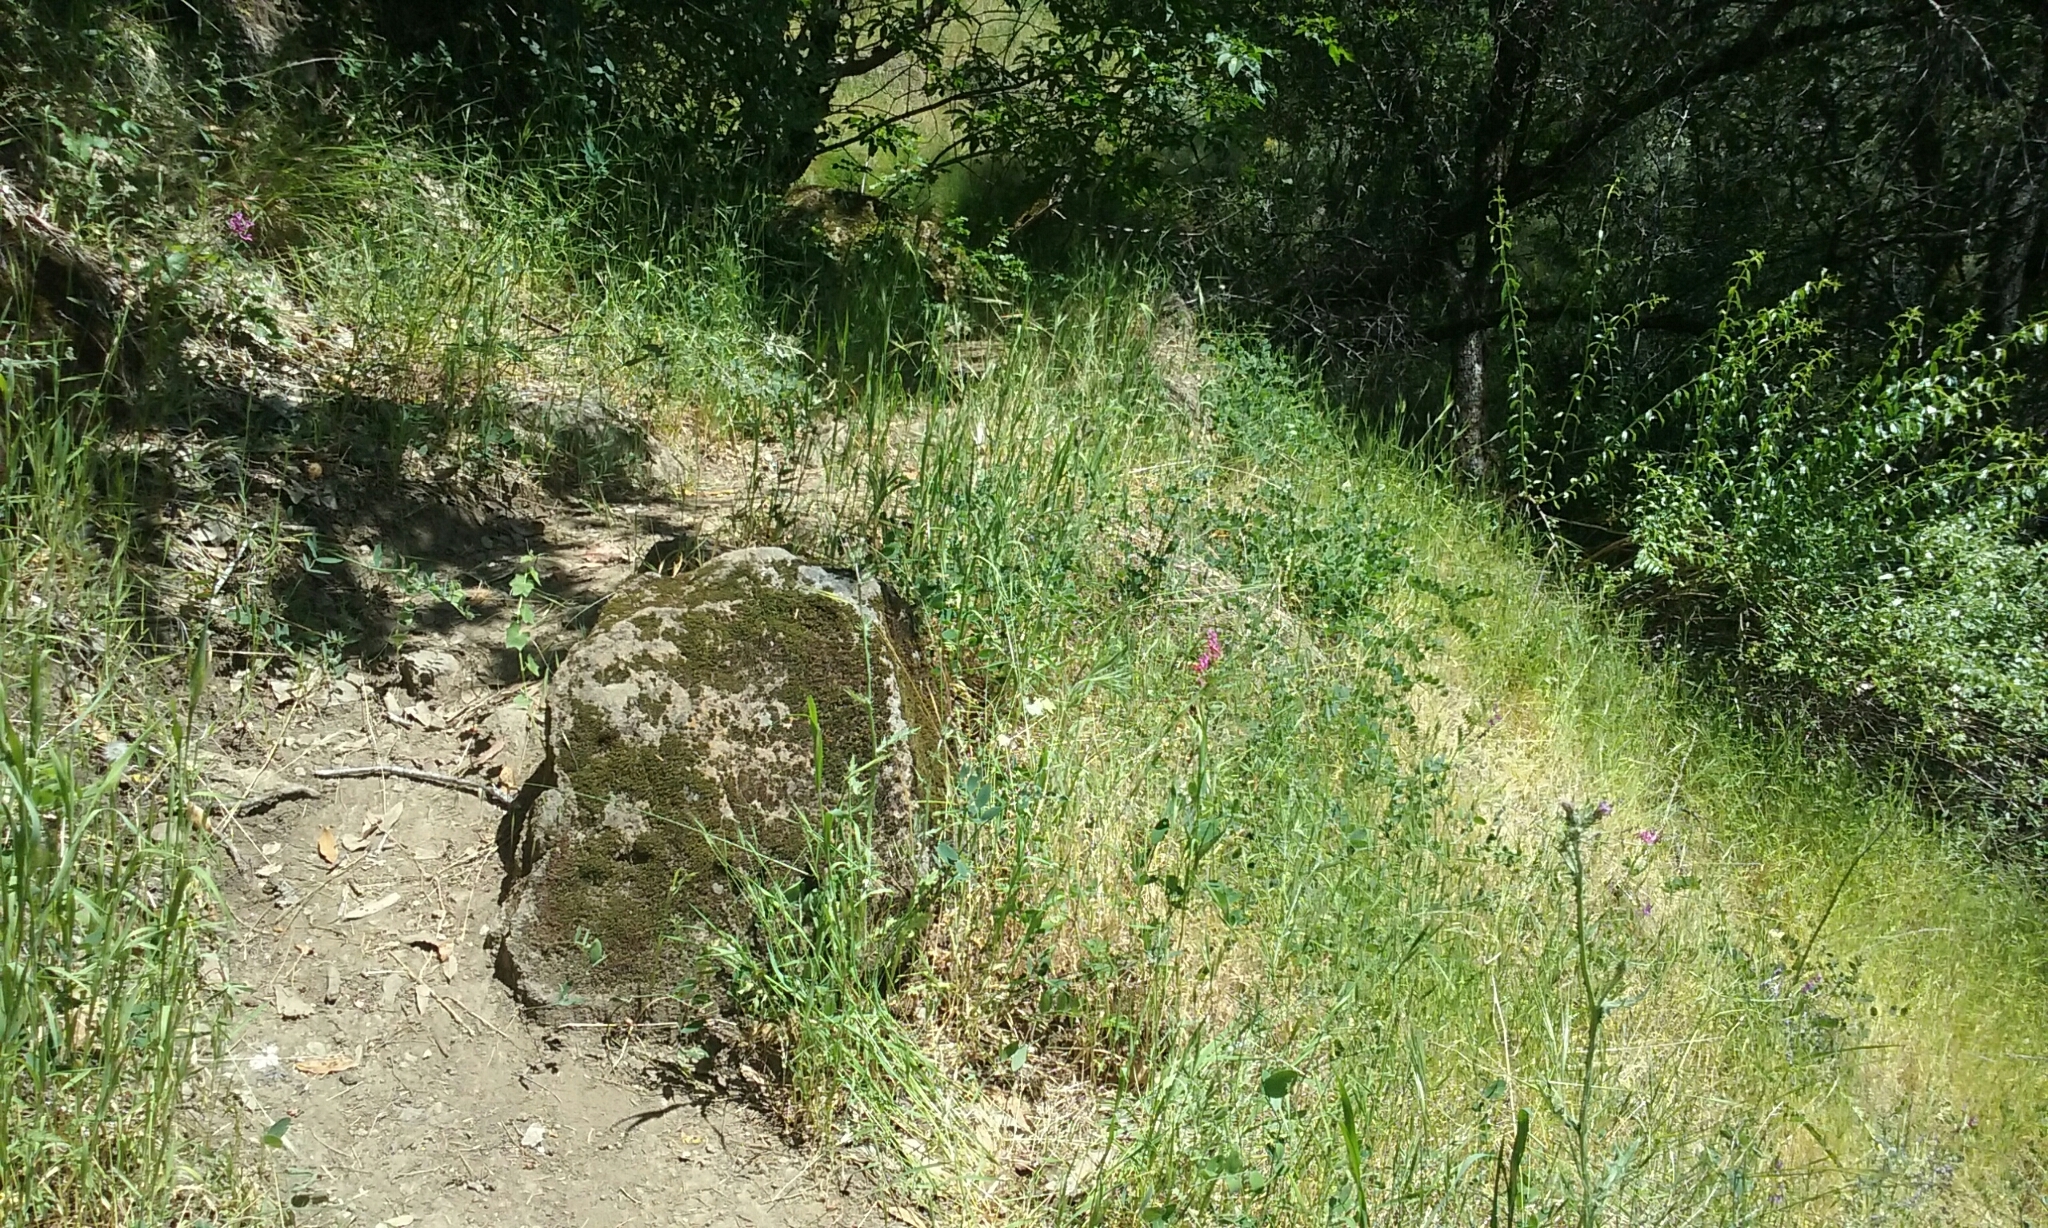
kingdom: Plantae
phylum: Tracheophyta
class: Magnoliopsida
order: Myrtales
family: Onagraceae
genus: Clarkia
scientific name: Clarkia concinna
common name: Red-ribbons
